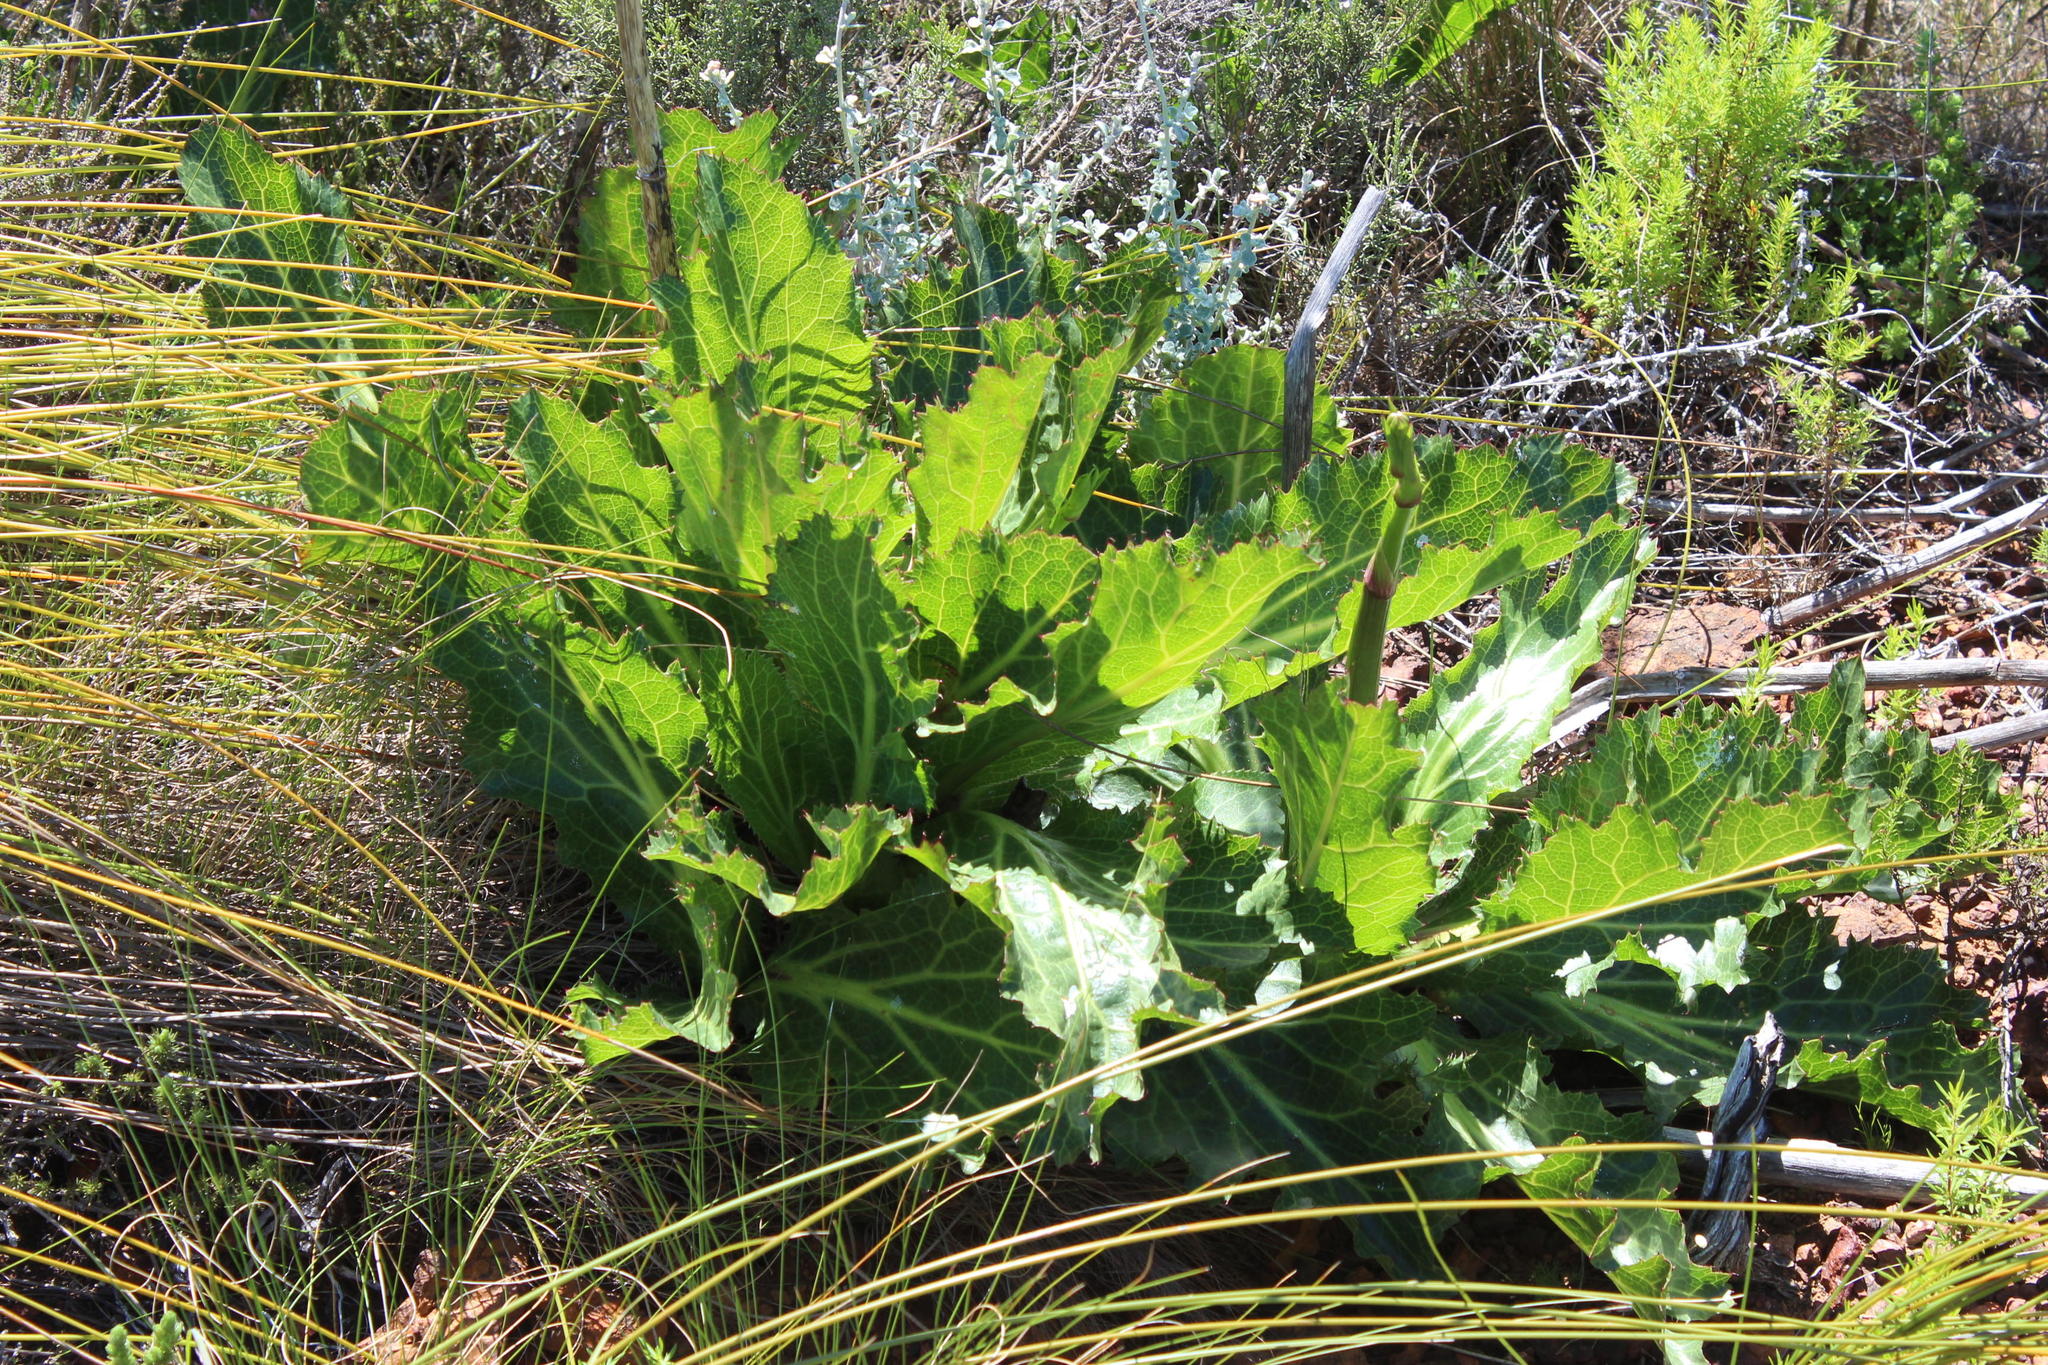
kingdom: Plantae
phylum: Tracheophyta
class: Magnoliopsida
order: Apiales
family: Apiaceae
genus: Lichtensteinia
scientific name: Lichtensteinia lacera
